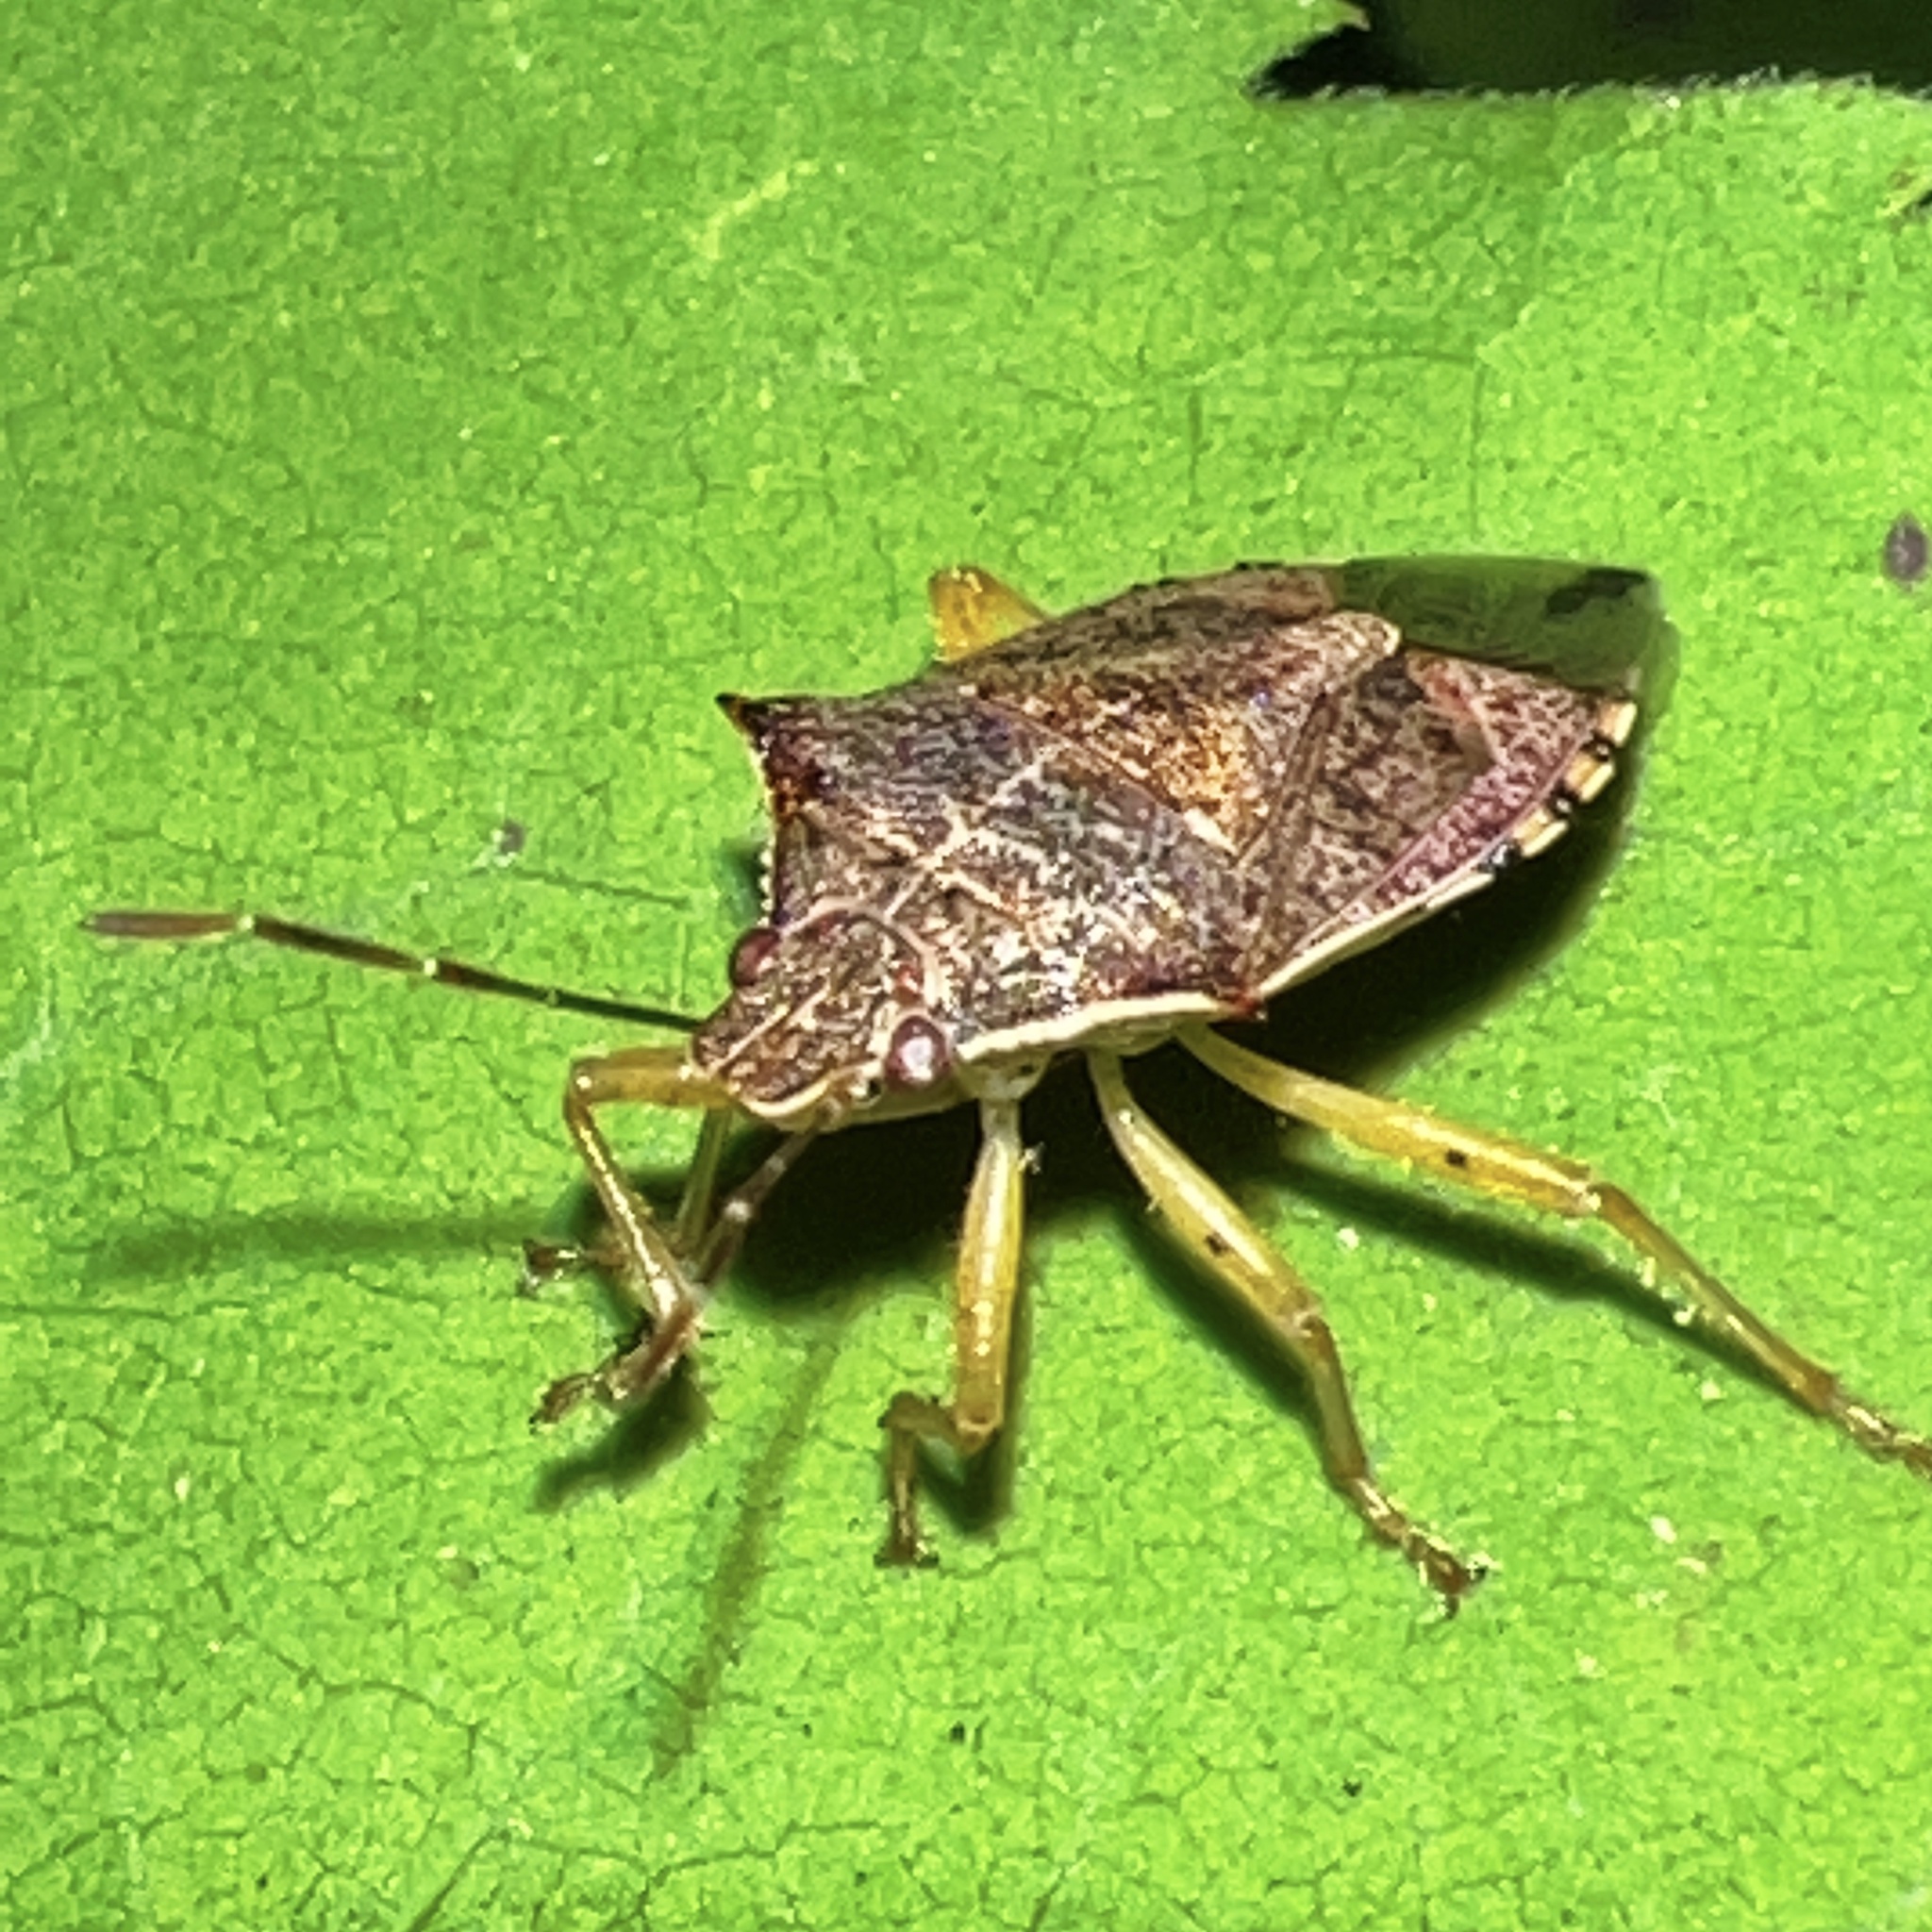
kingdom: Animalia
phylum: Arthropoda
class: Insecta
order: Hemiptera
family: Pentatomidae
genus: Podisus
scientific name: Podisus maculiventris
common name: Spined soldier bug
